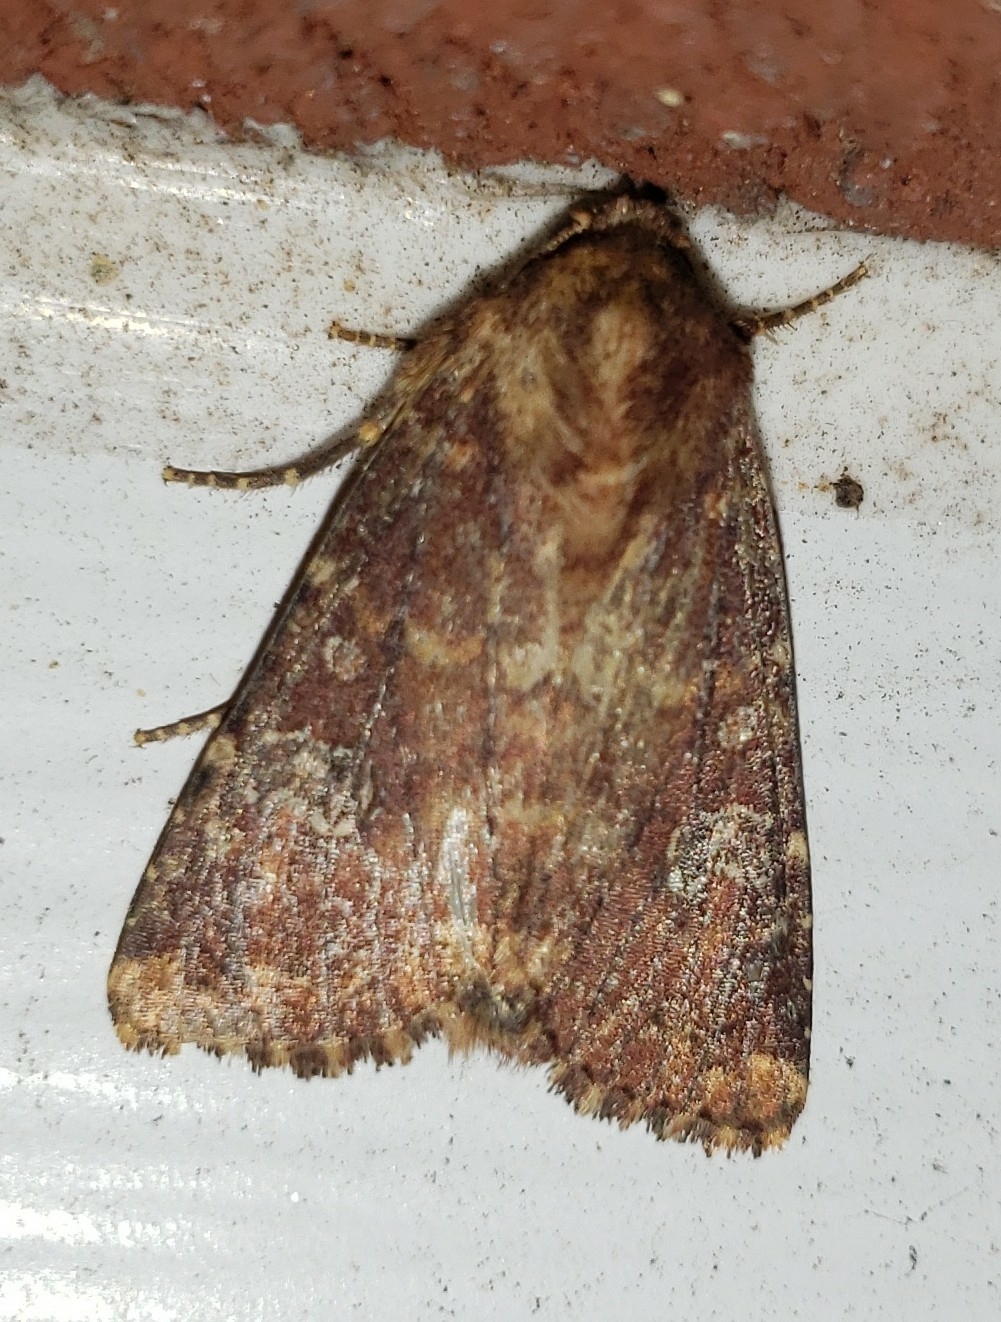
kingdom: Animalia
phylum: Arthropoda
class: Insecta
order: Lepidoptera
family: Noctuidae
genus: Sideridis
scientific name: Sideridis congermana
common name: German cousin moth
